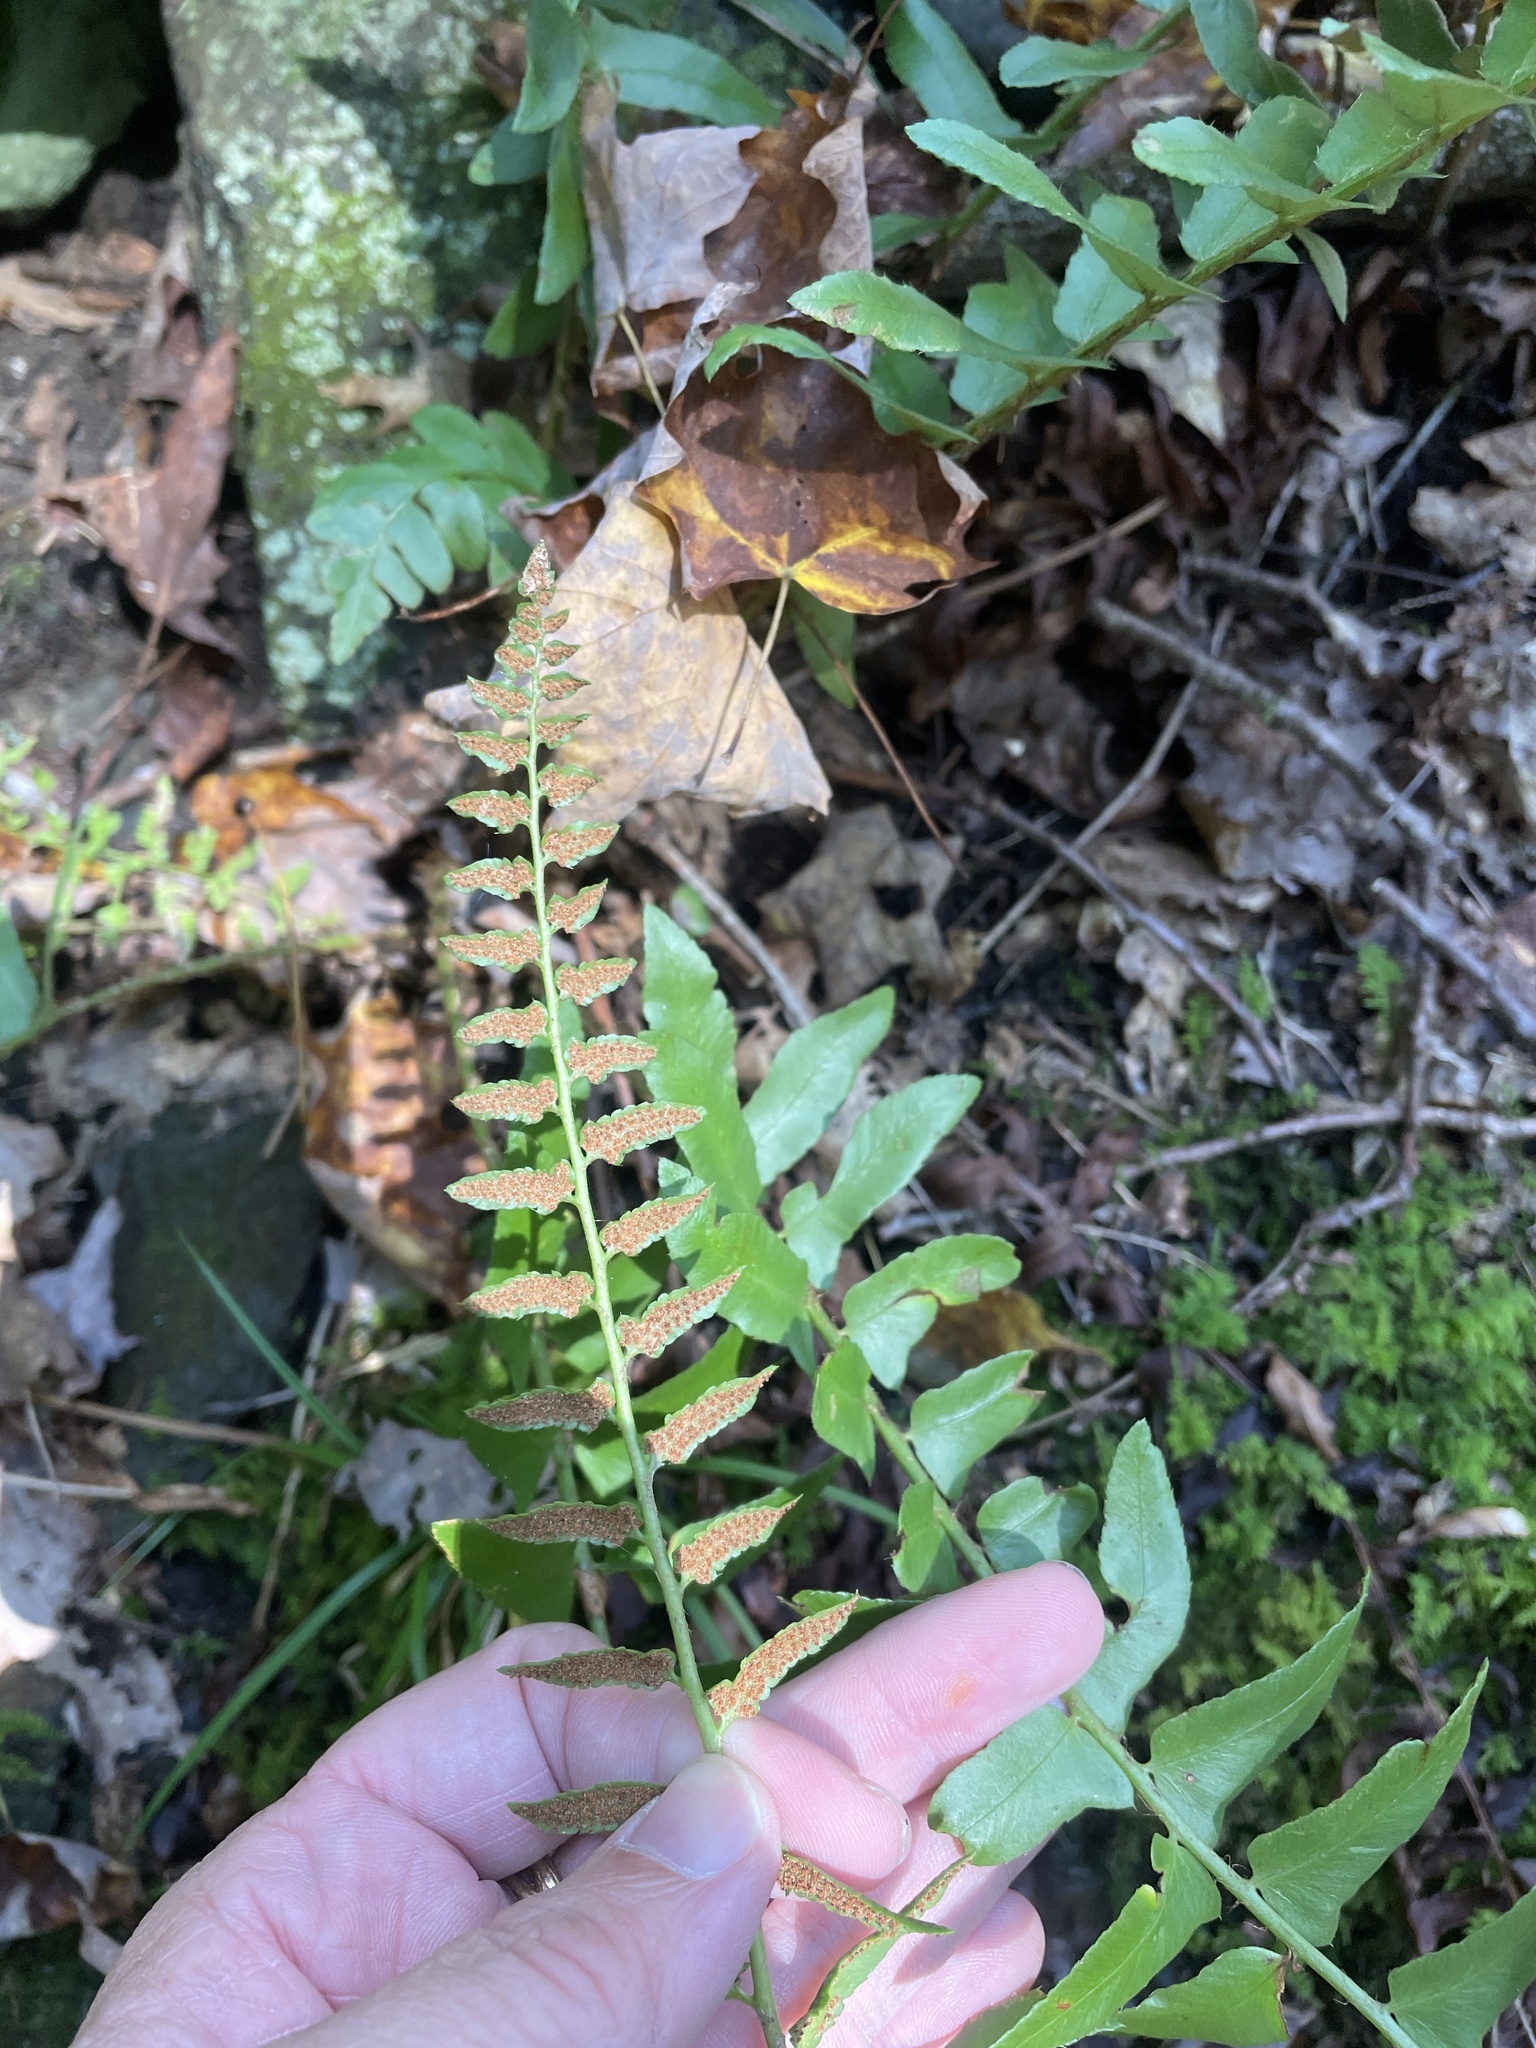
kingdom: Plantae
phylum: Tracheophyta
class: Polypodiopsida
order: Polypodiales
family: Dryopteridaceae
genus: Polystichum
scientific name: Polystichum acrostichoides
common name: Christmas fern
